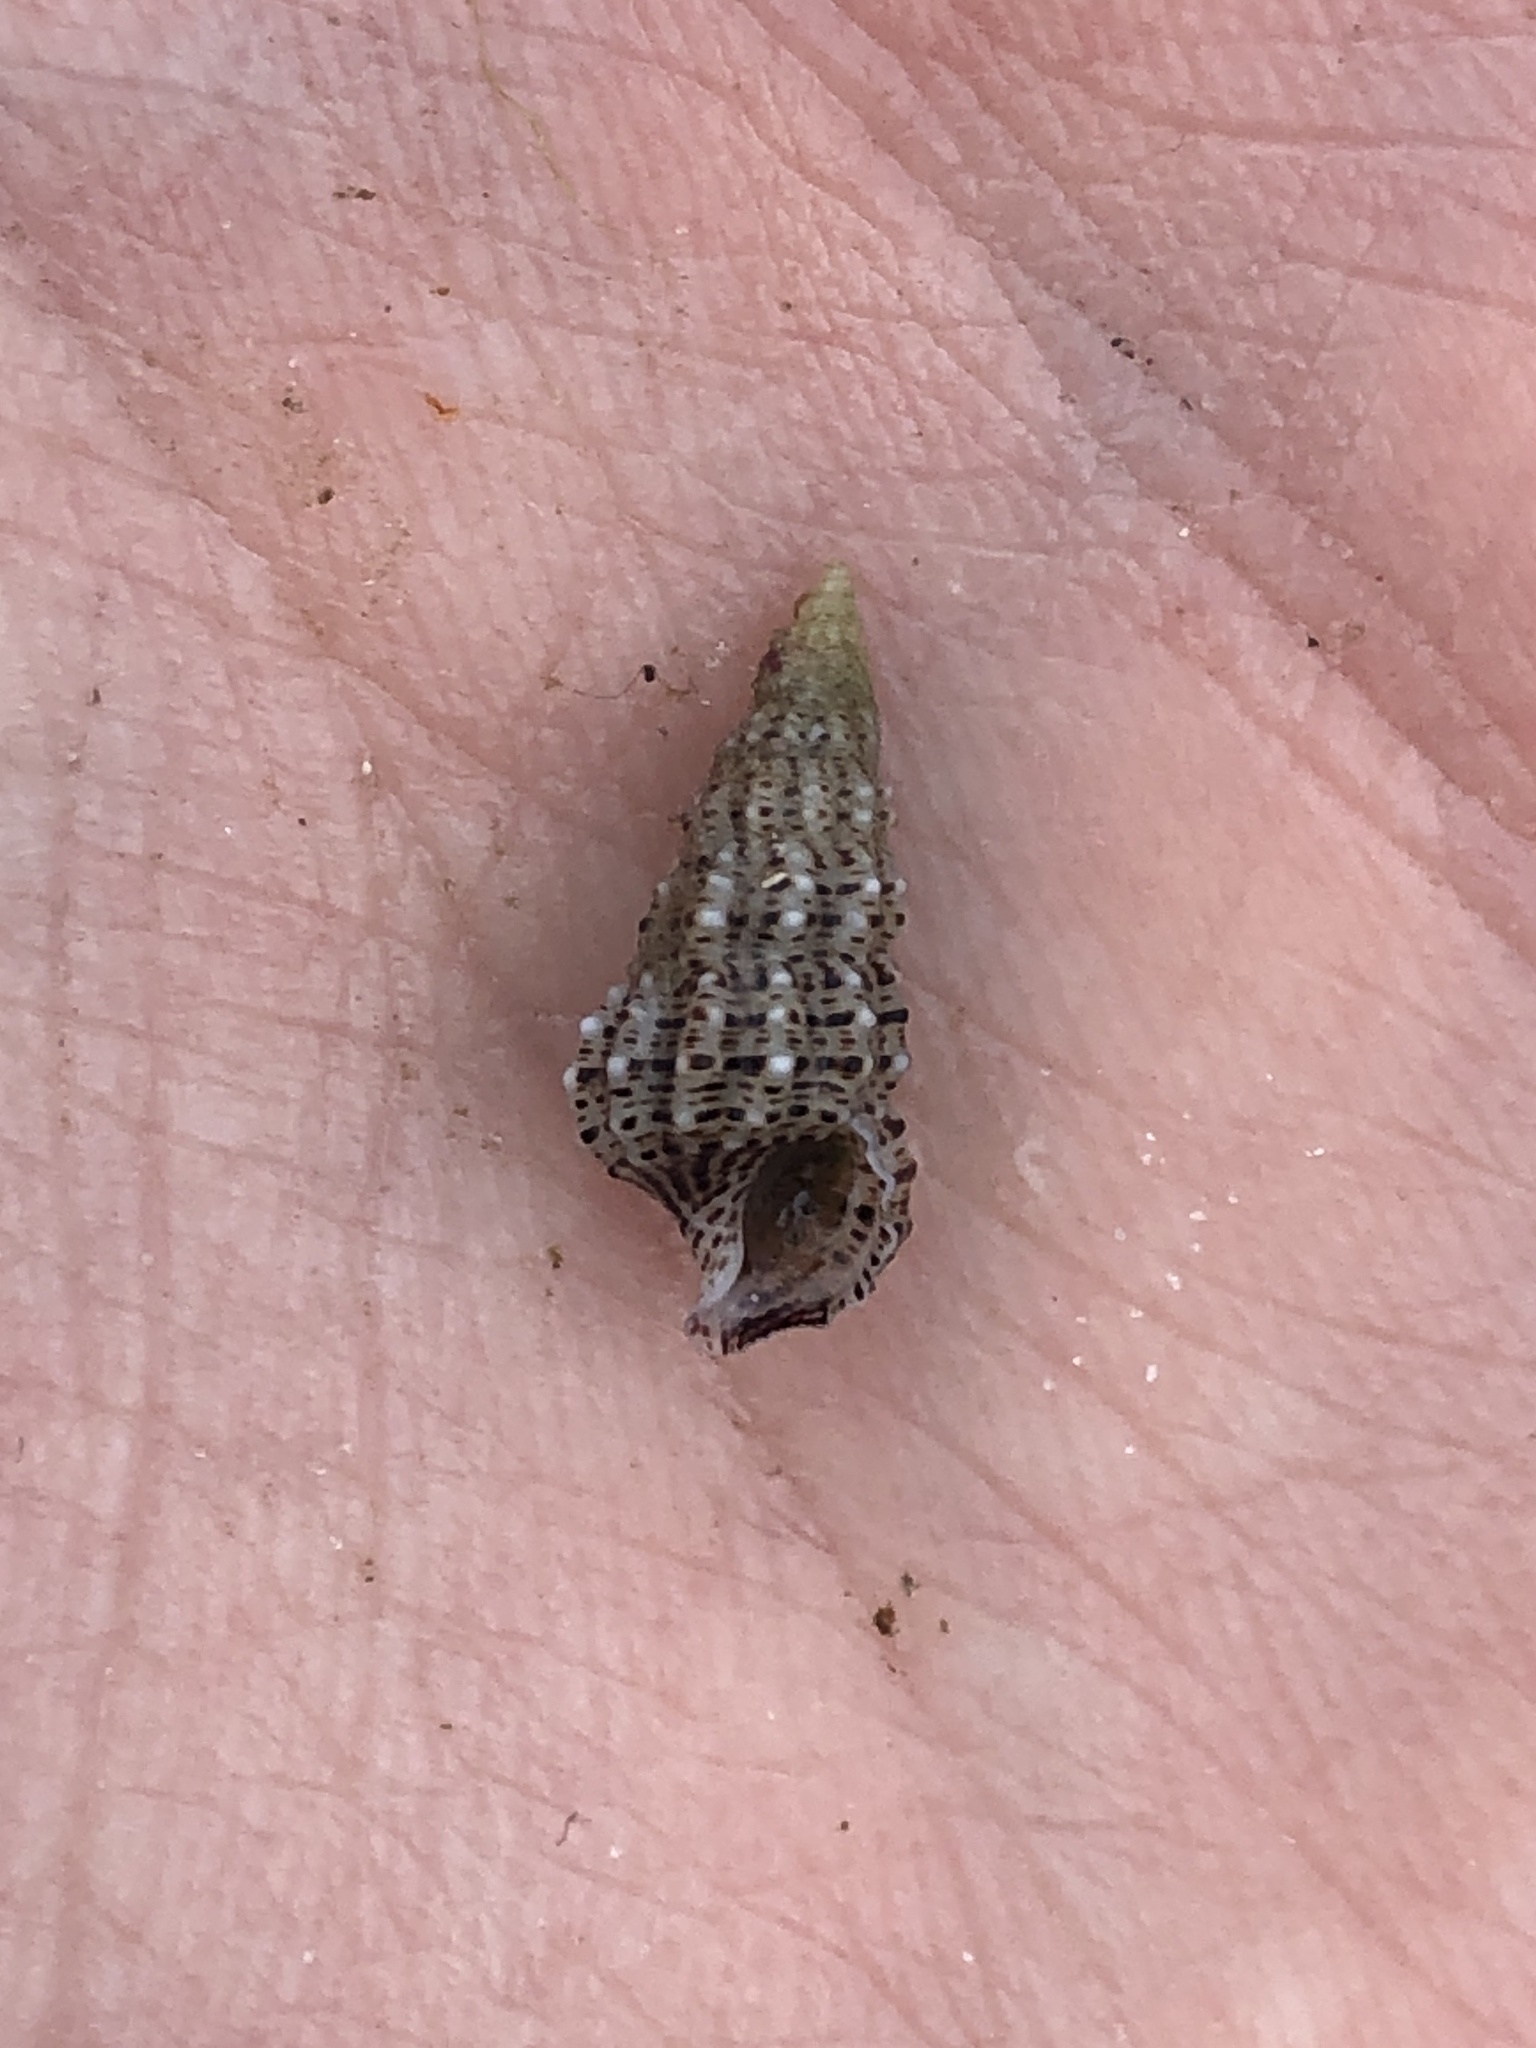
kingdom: Animalia
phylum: Mollusca
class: Gastropoda
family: Cerithiidae
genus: Cerithium
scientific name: Cerithium muscarum
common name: Fly-specked cerith
